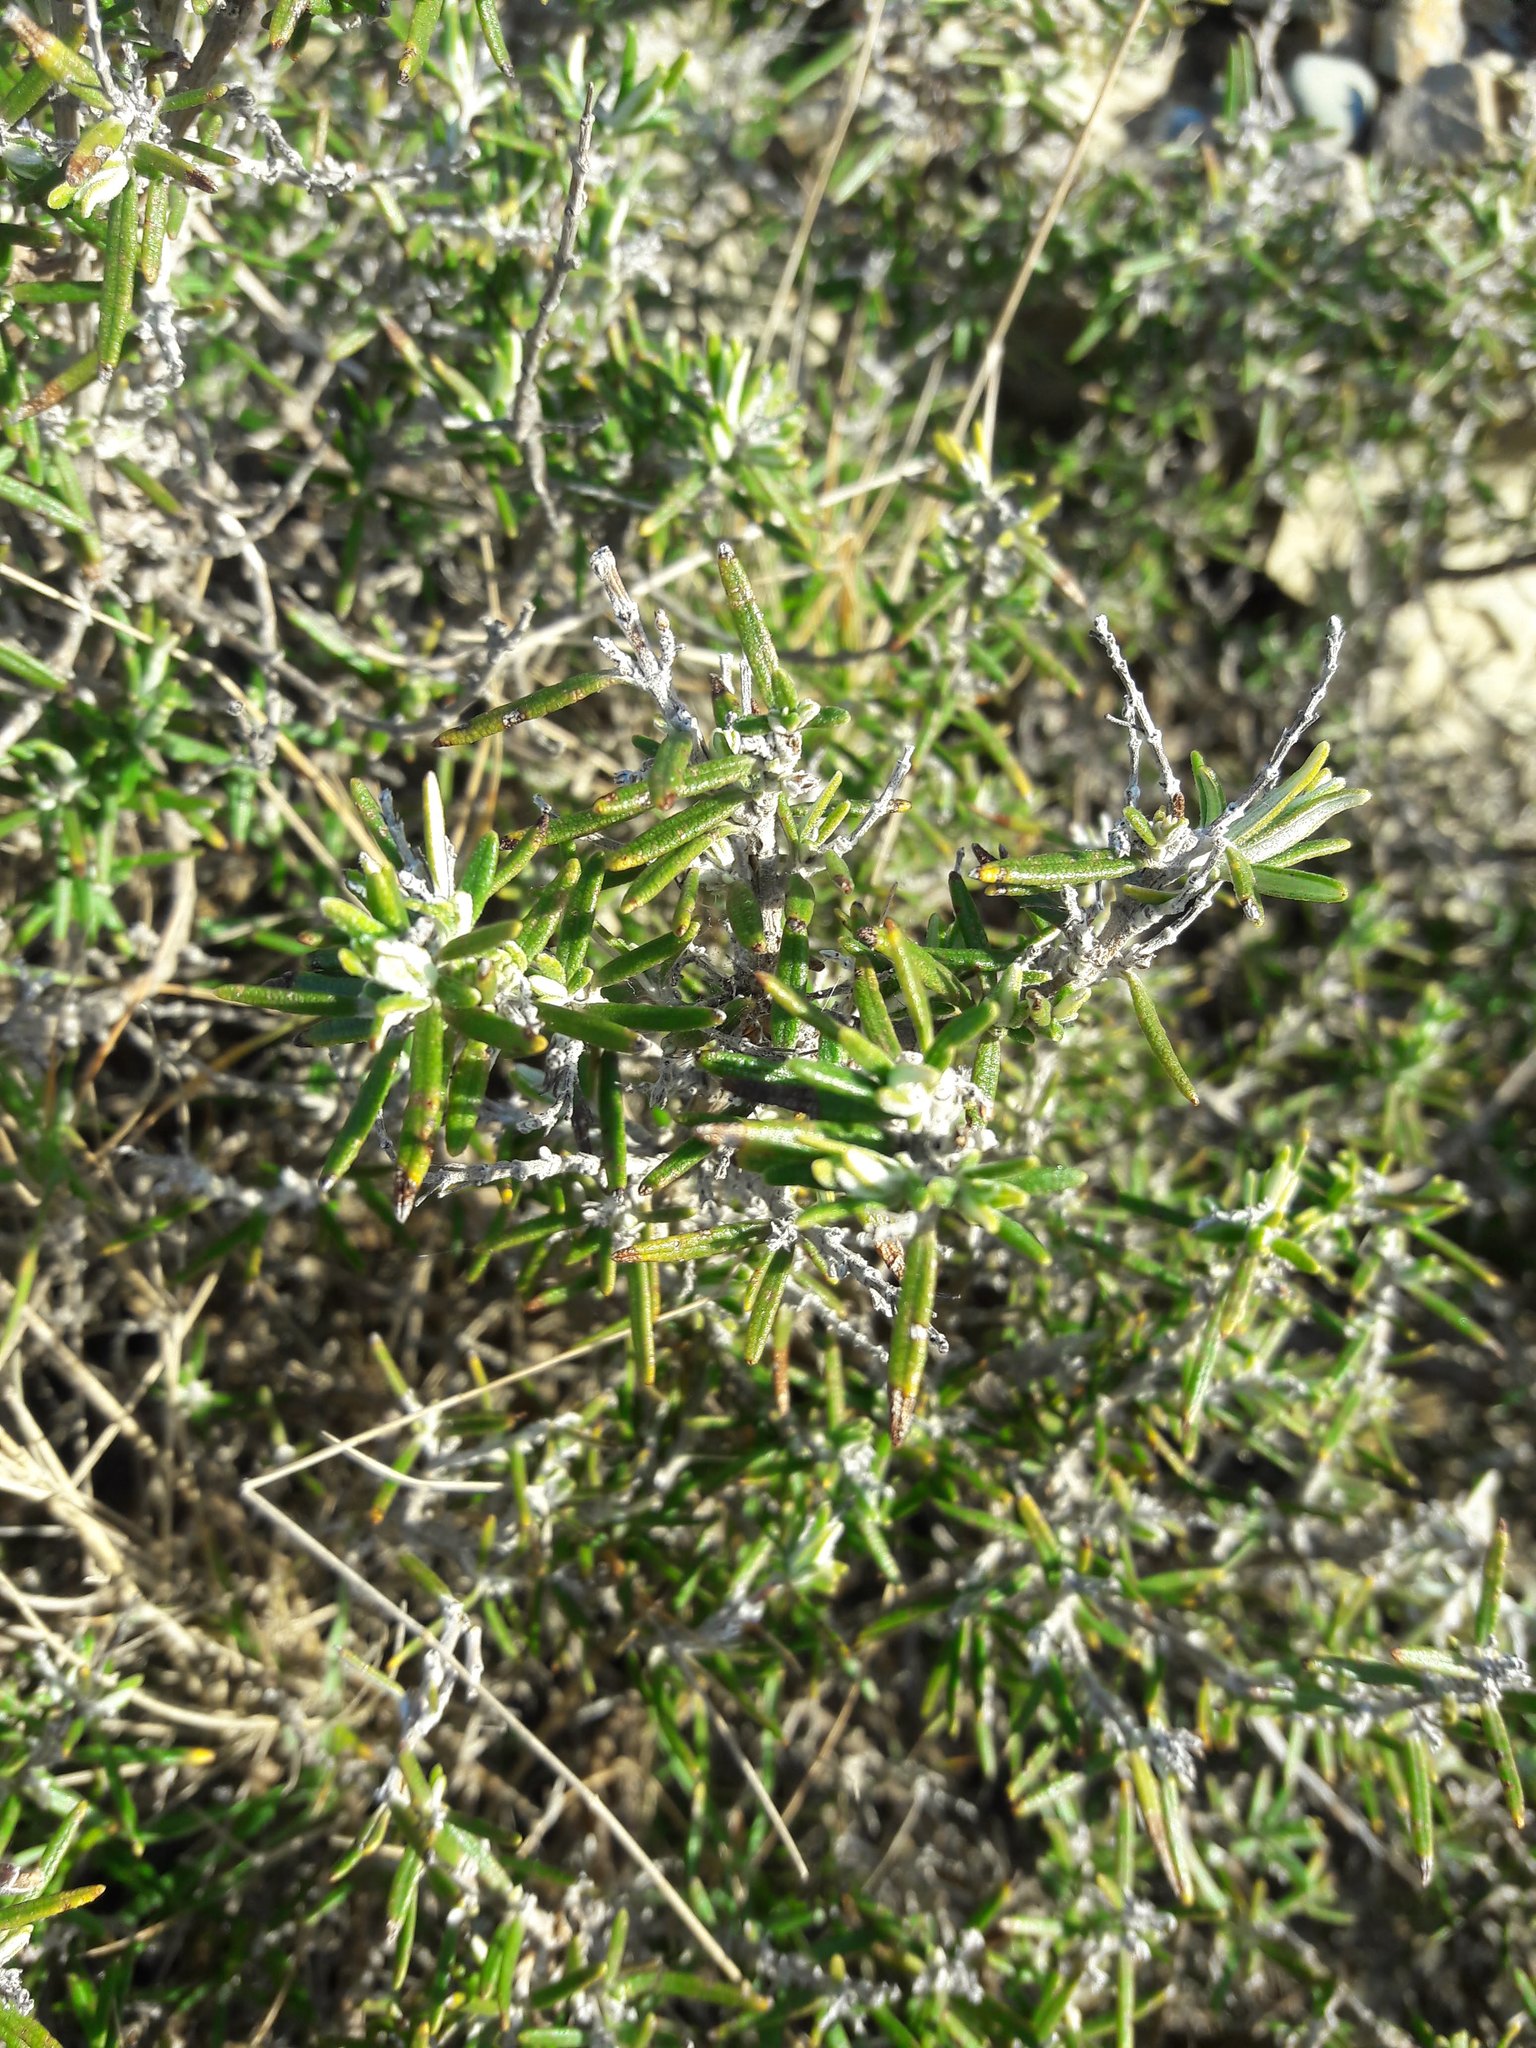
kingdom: Plantae
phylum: Tracheophyta
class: Magnoliopsida
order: Lamiales
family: Lamiaceae
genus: Salvia
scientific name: Salvia rosmarinus
